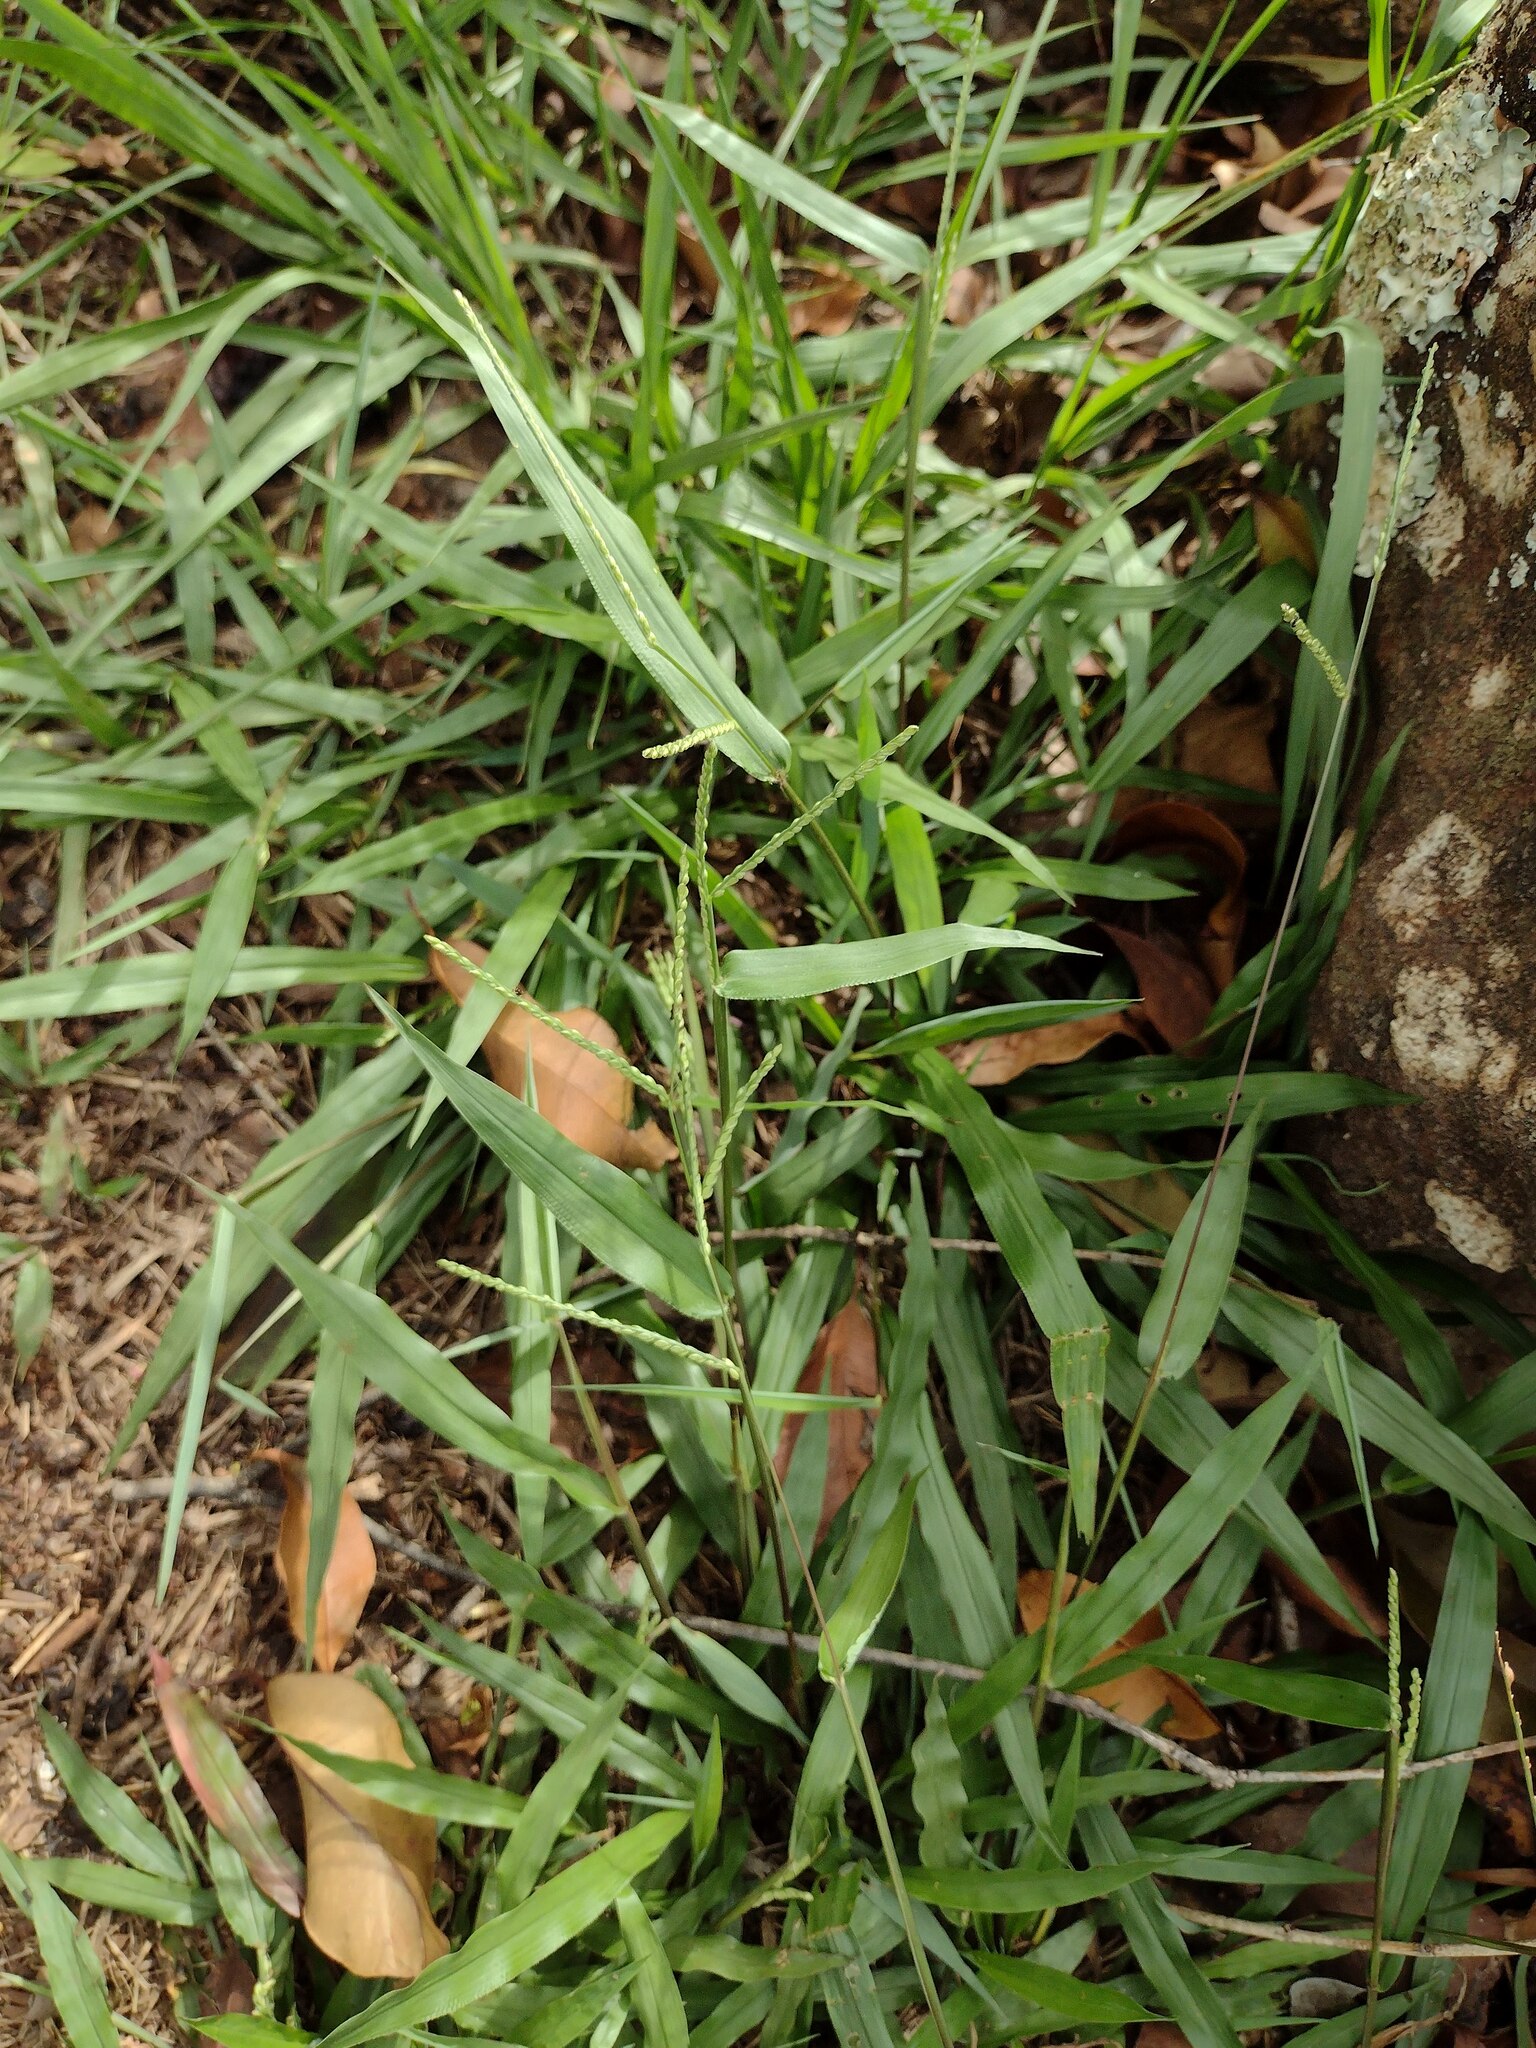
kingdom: Plantae
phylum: Tracheophyta
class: Liliopsida
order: Poales
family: Poaceae
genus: Paspalum
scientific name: Paspalum langei
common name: Rusty-seed paspalum
